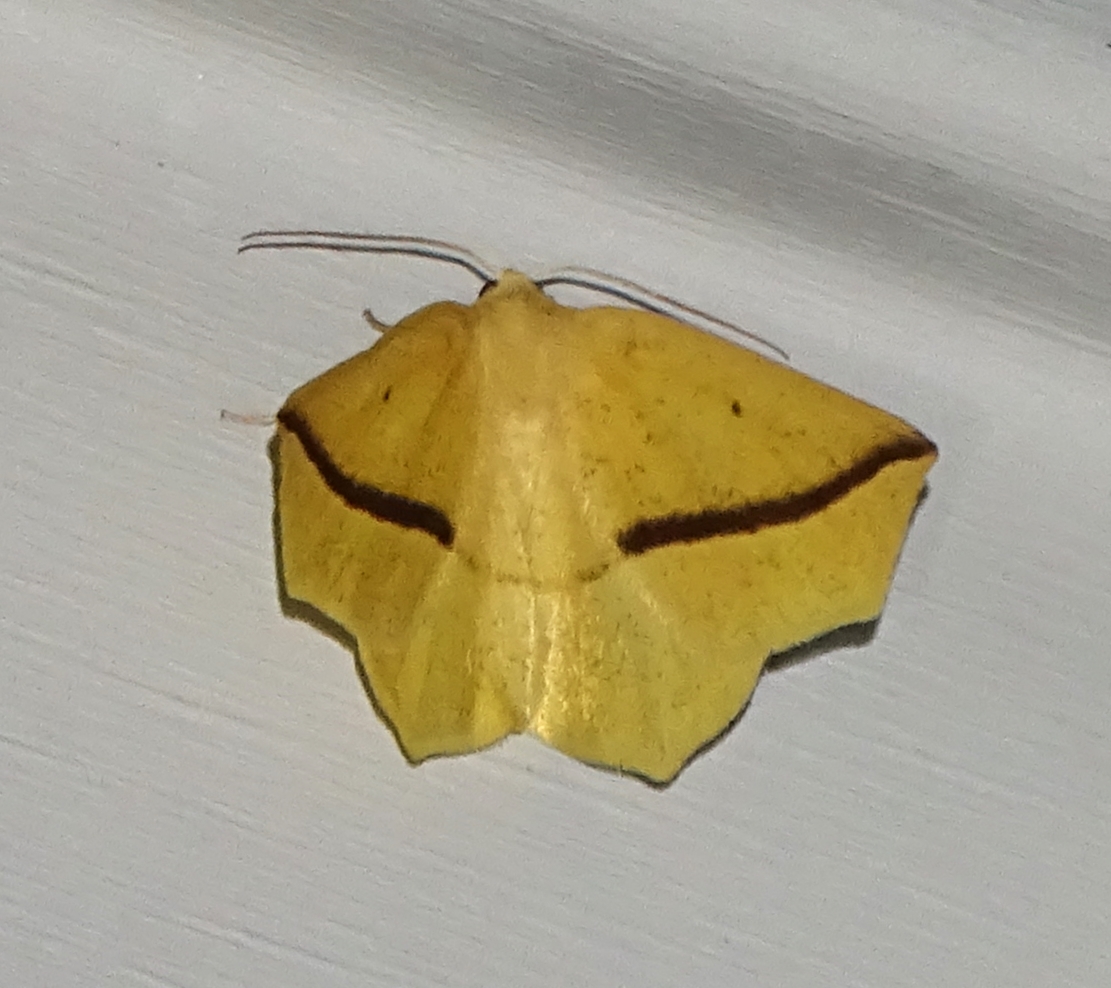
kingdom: Animalia
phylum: Arthropoda
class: Insecta
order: Lepidoptera
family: Geometridae
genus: Tetracis
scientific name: Tetracis crocallata
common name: Yellow slant-line
